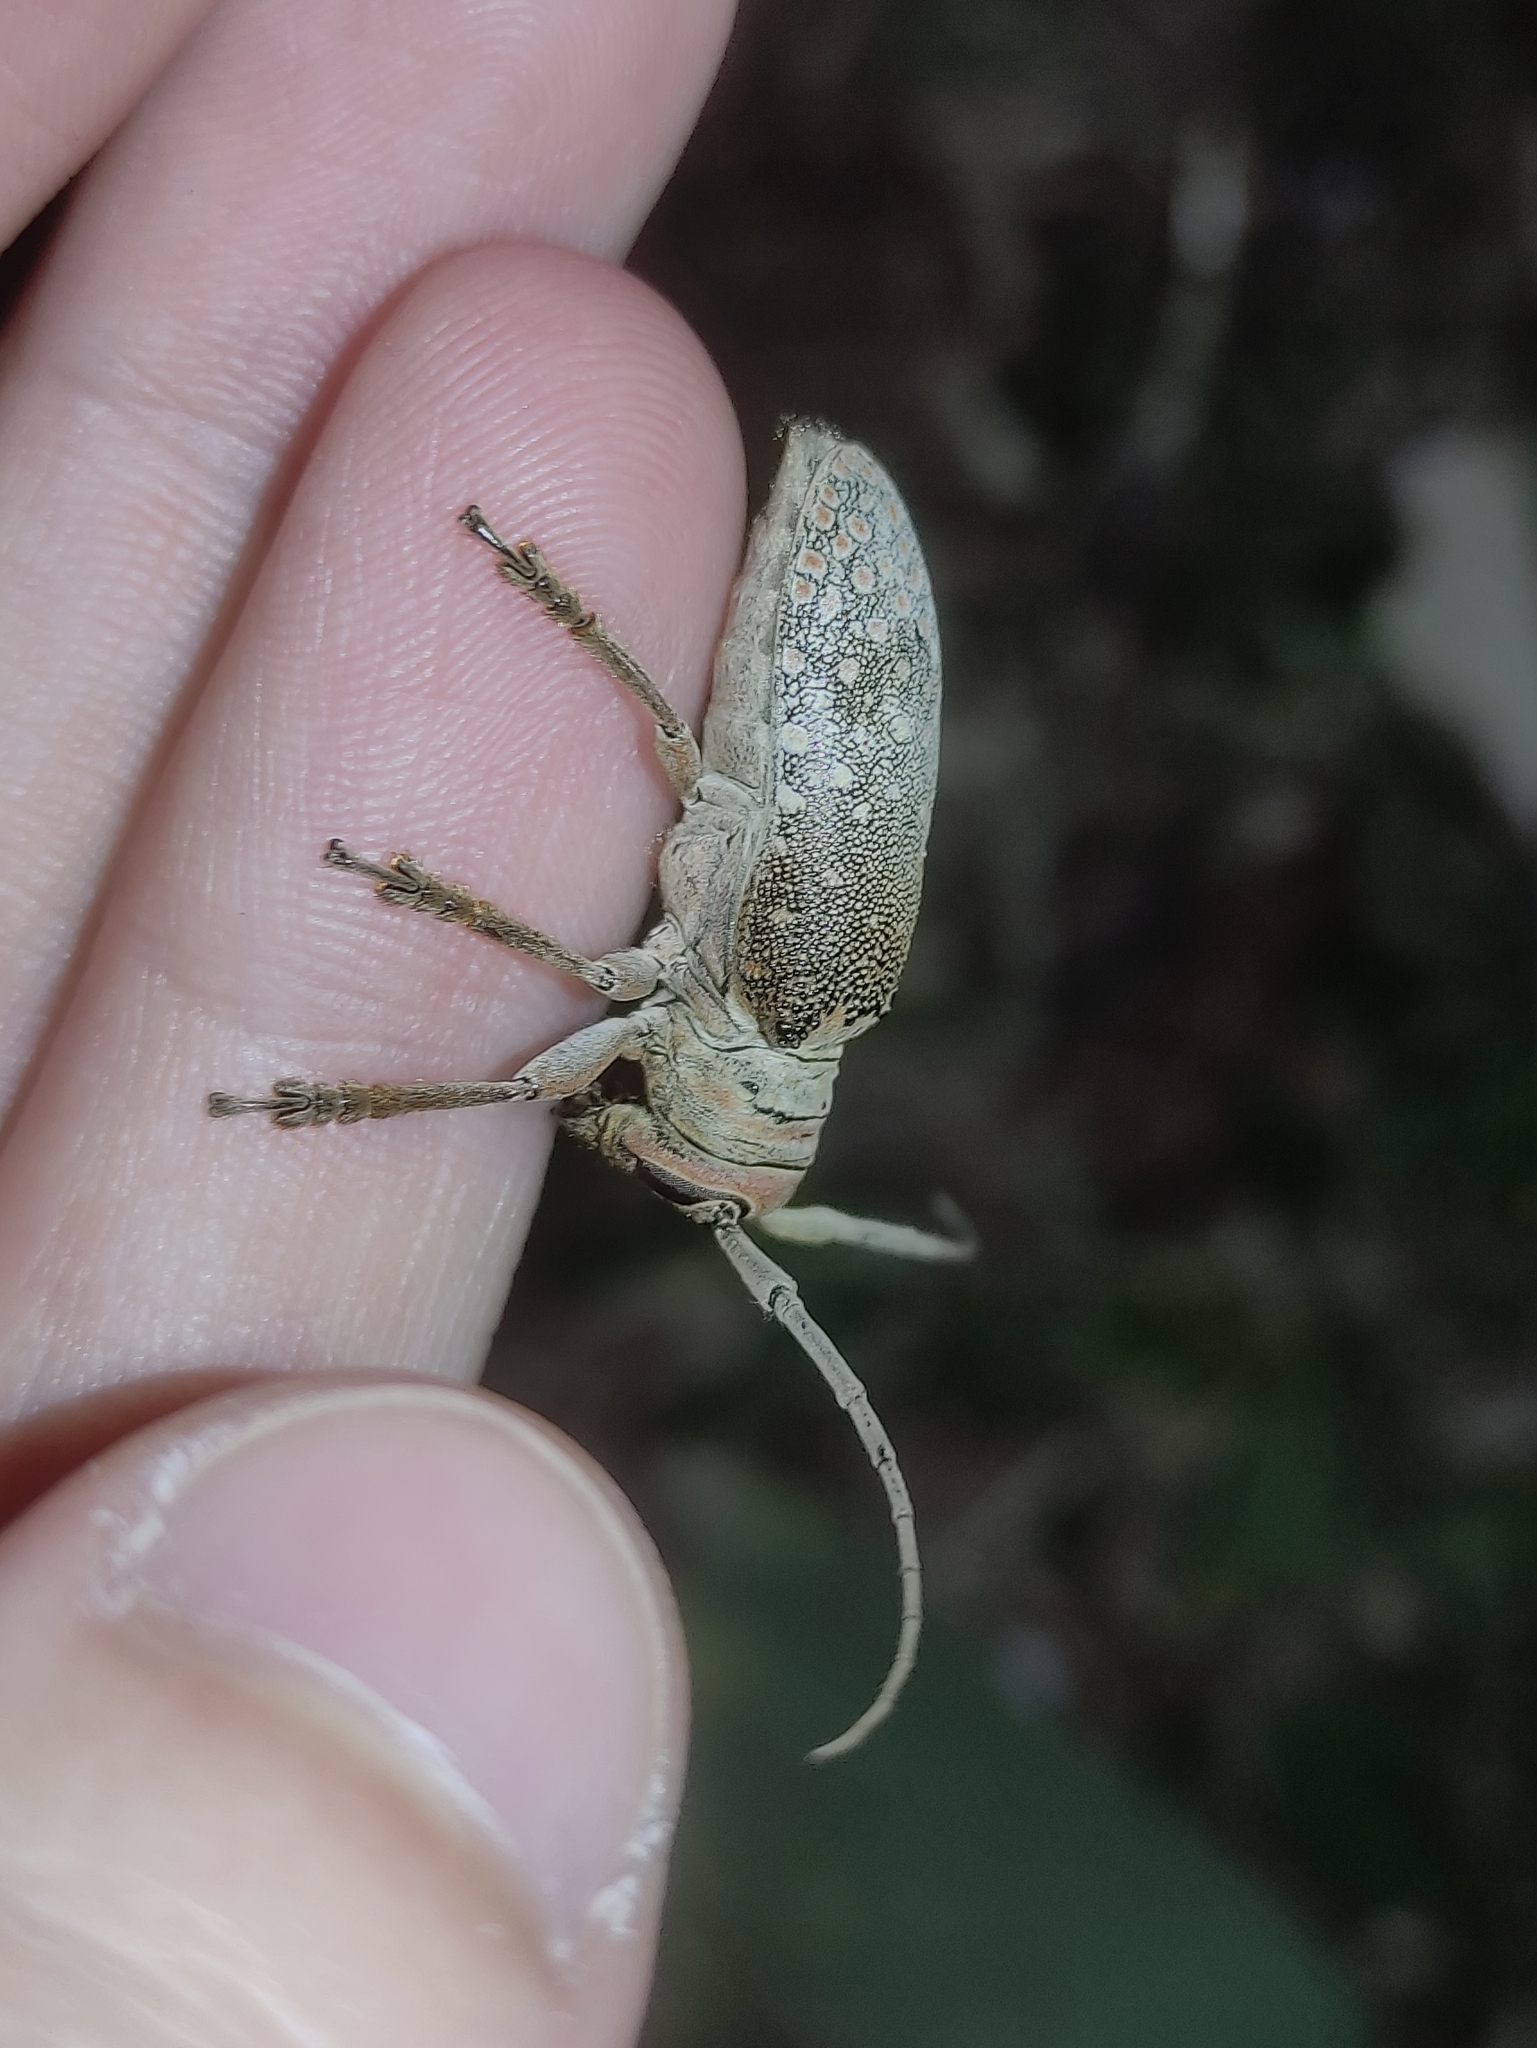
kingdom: Animalia
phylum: Arthropoda
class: Insecta
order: Coleoptera
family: Cerambycidae
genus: Oncideres
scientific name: Oncideres dejeanii
